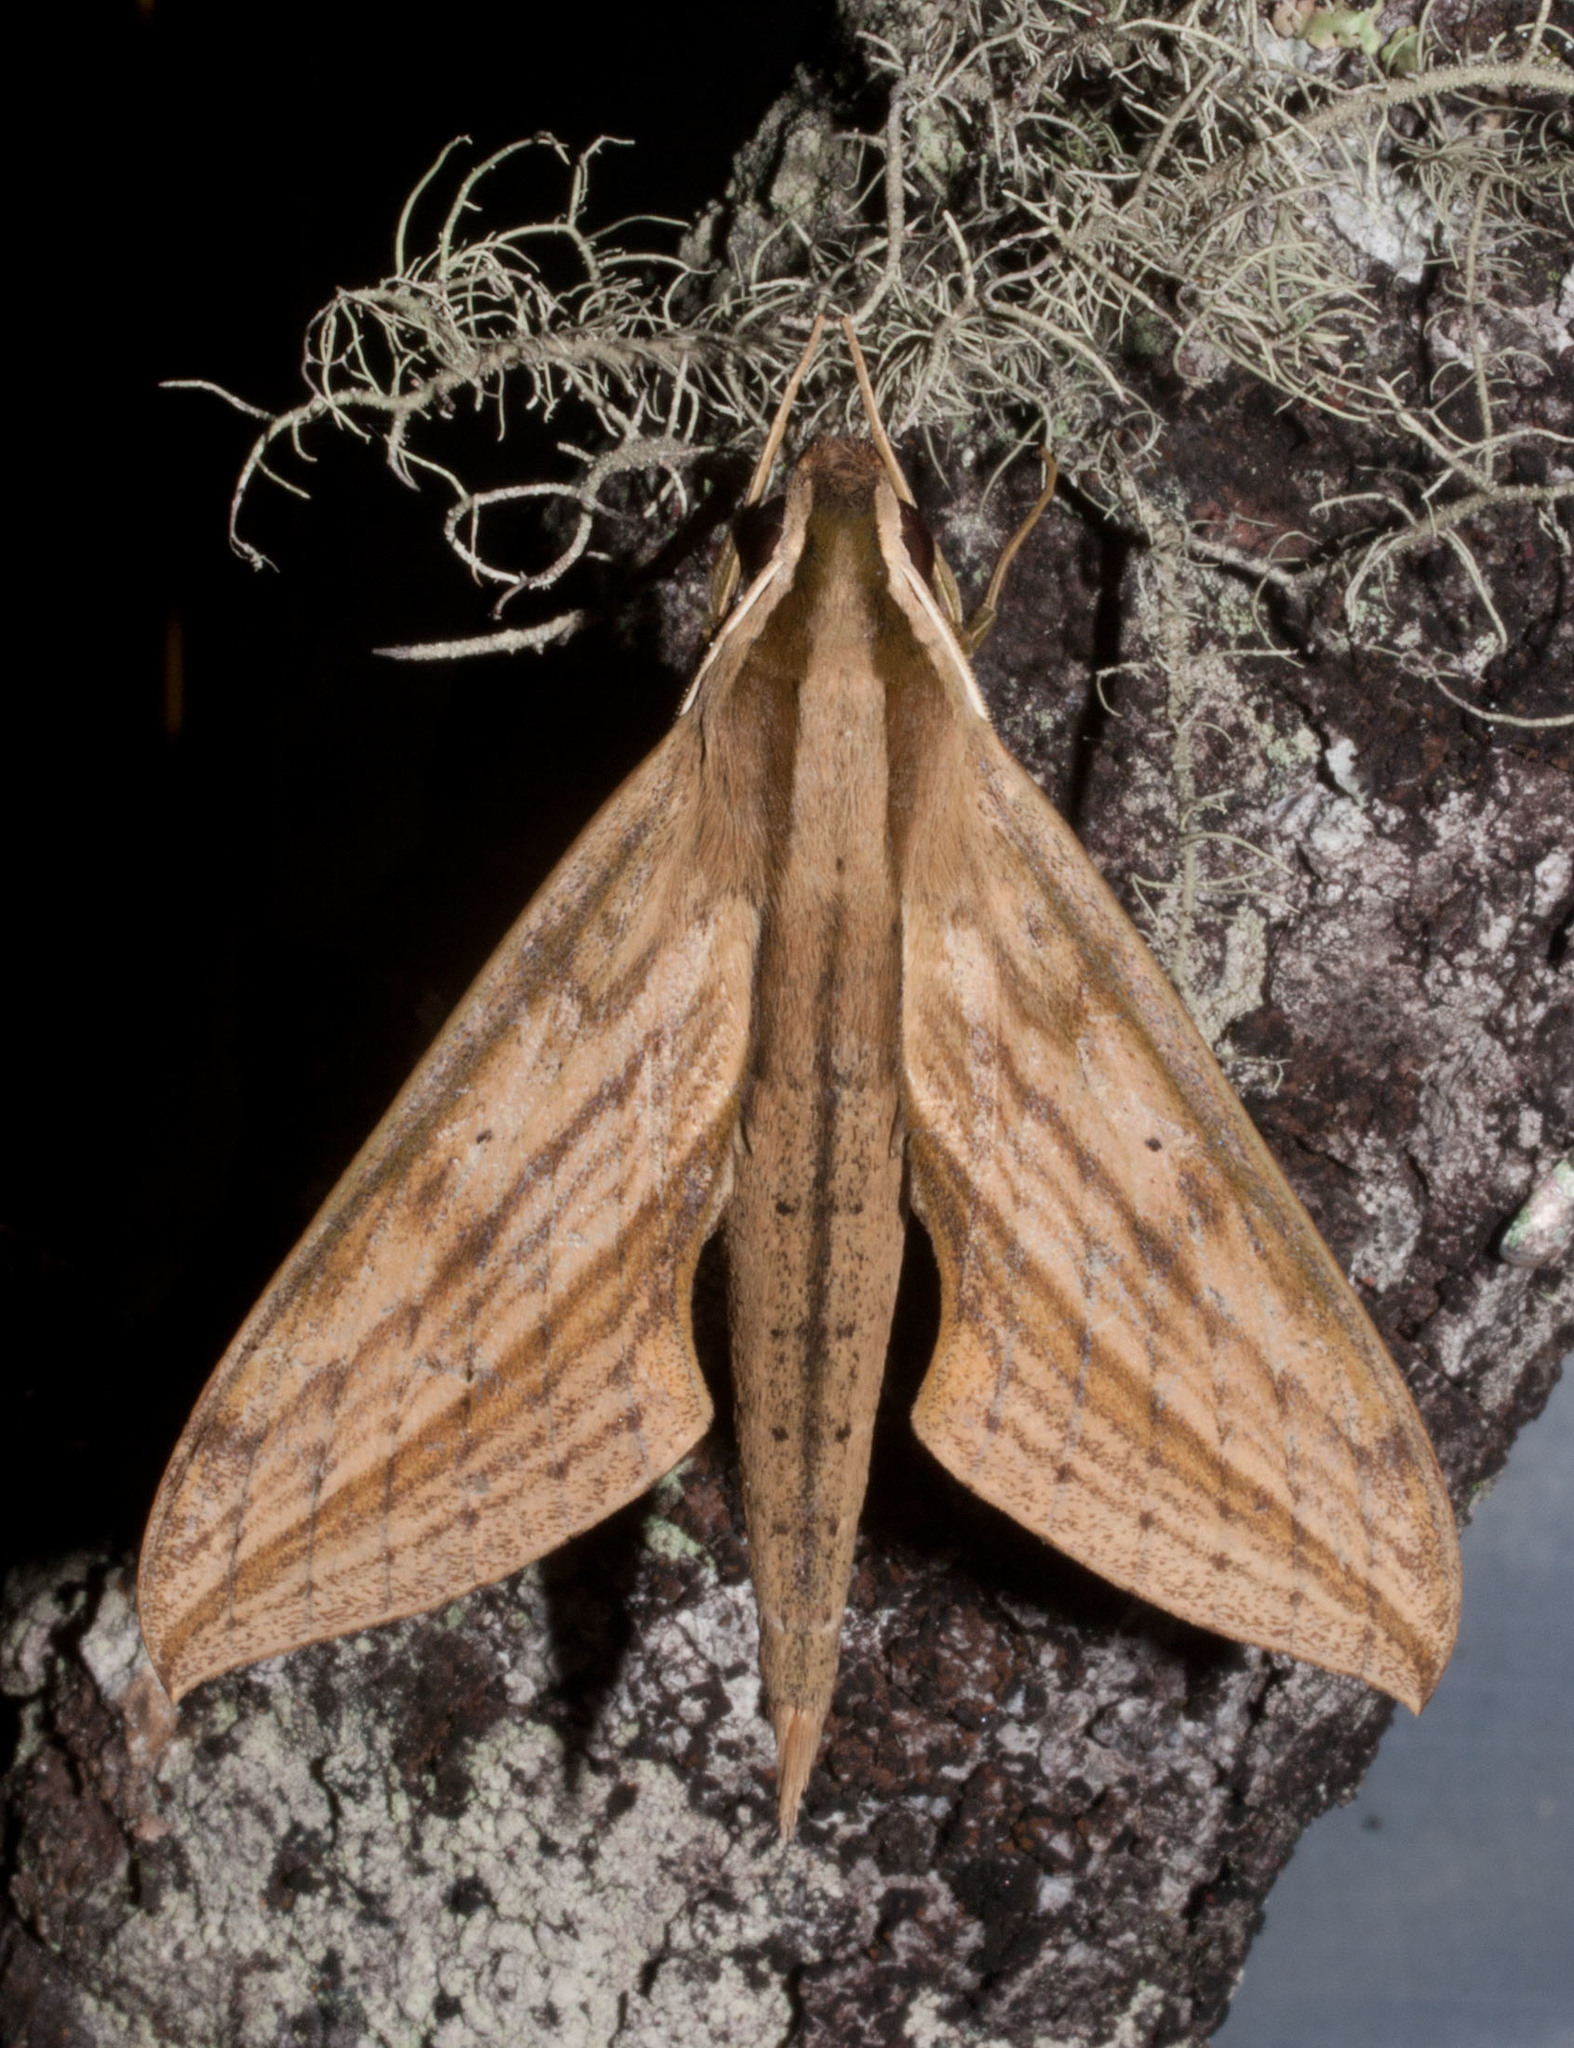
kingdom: Animalia
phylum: Arthropoda
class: Insecta
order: Lepidoptera
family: Sphingidae
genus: Xylophanes
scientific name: Xylophanes anubus
